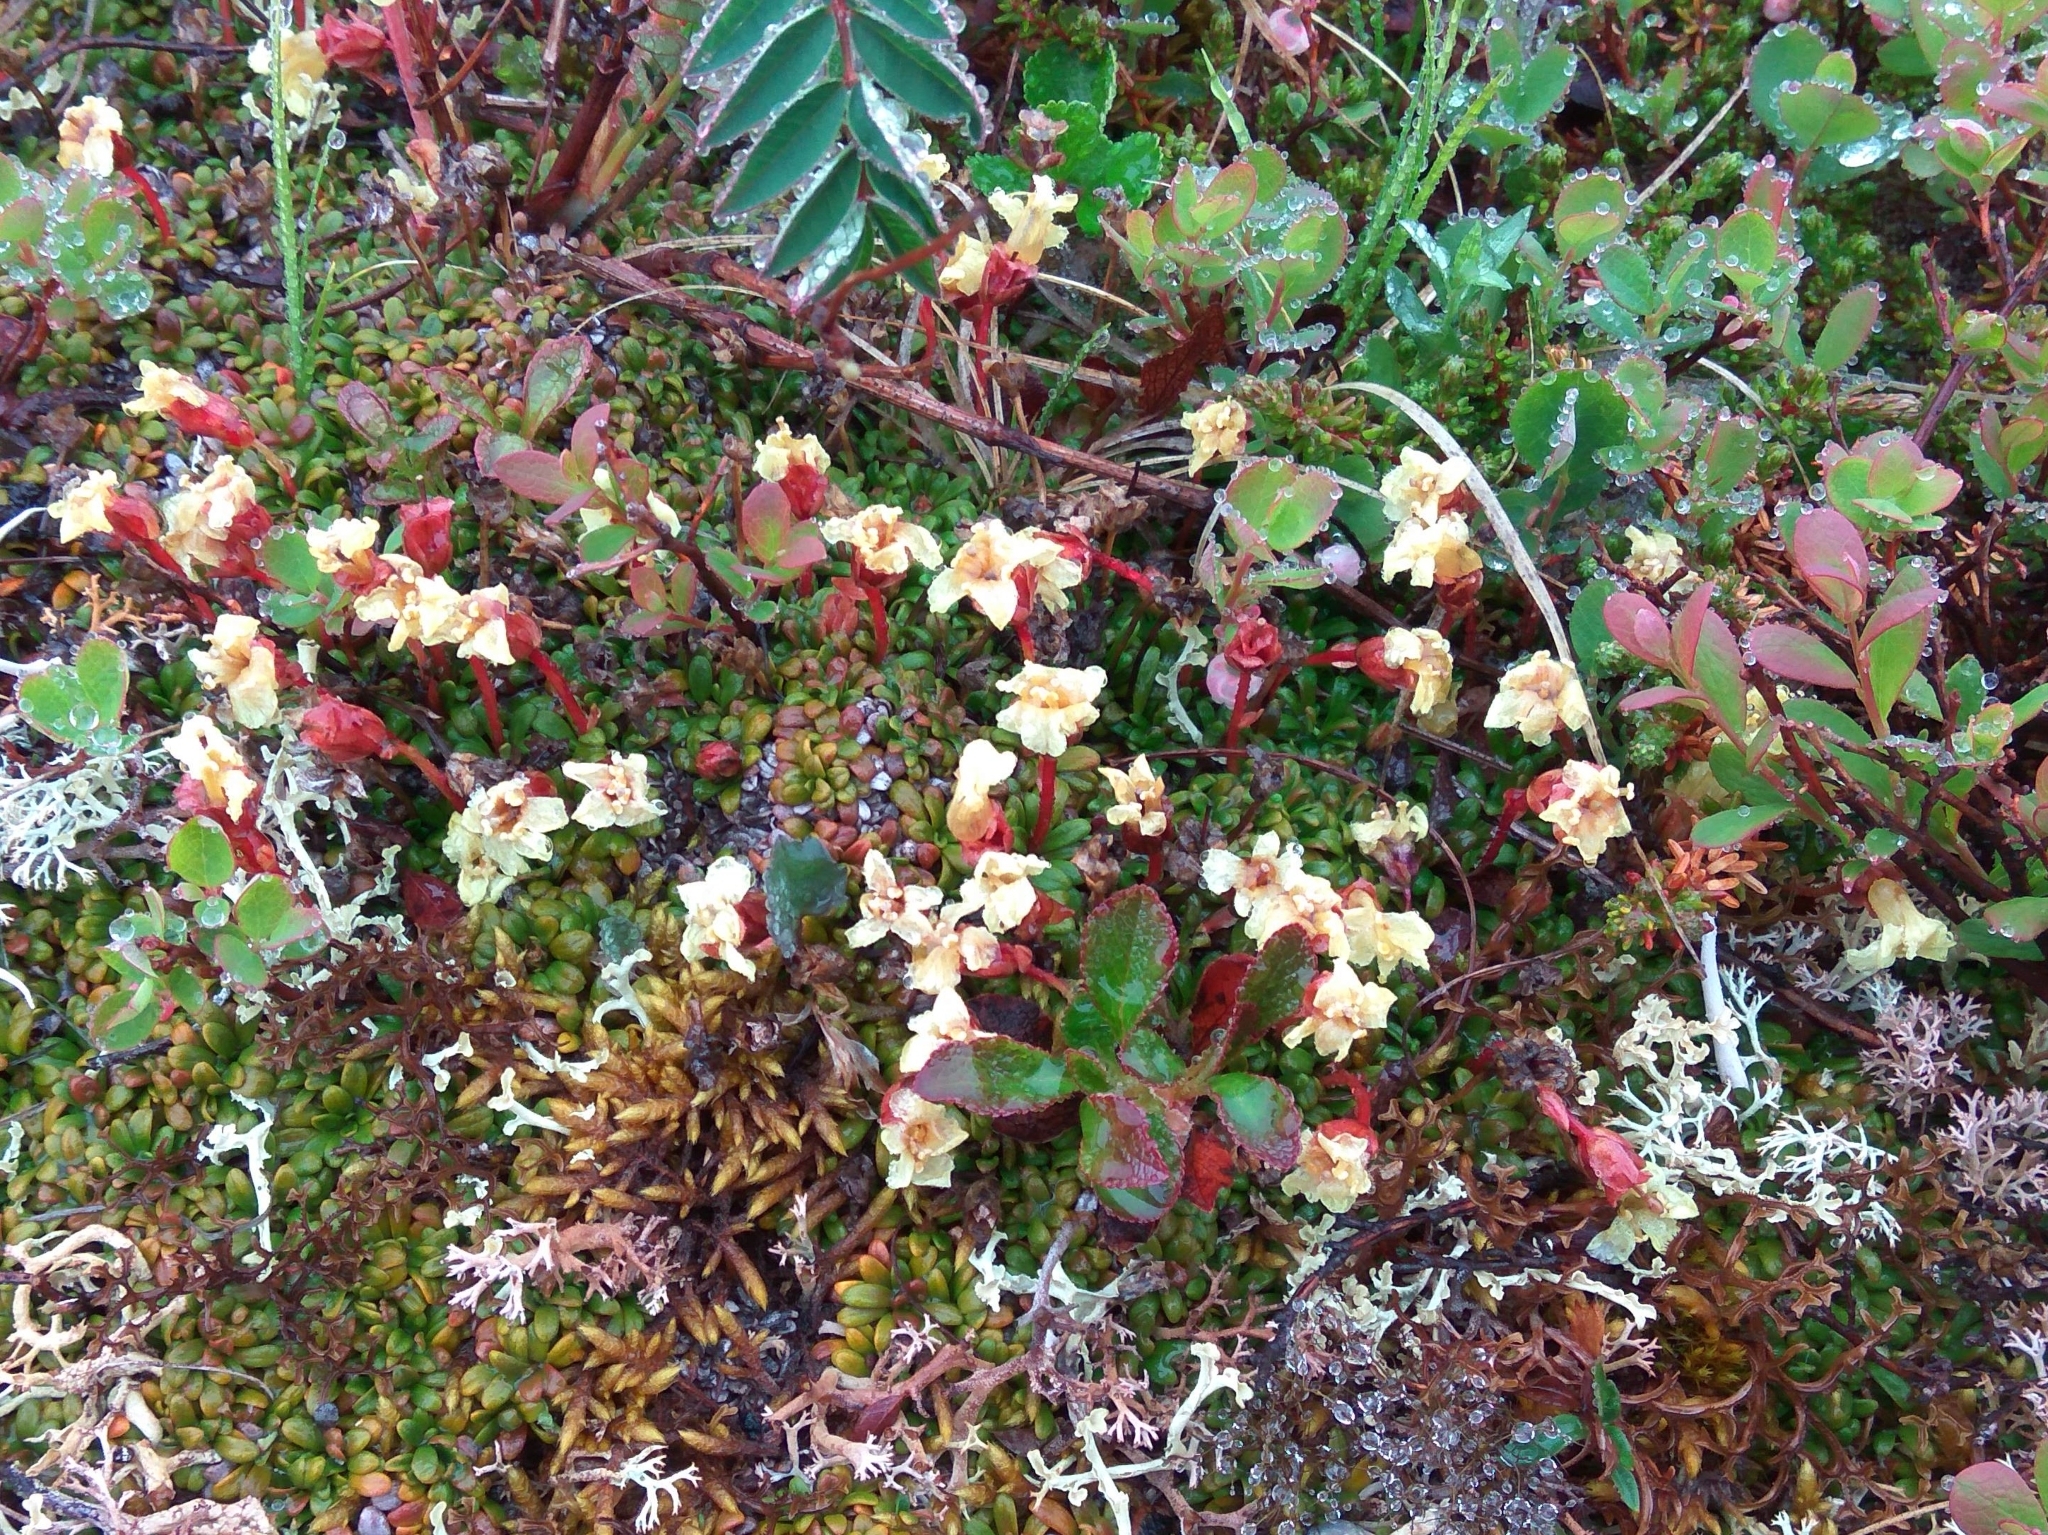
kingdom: Plantae
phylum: Tracheophyta
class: Magnoliopsida
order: Ericales
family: Diapensiaceae
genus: Diapensia
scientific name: Diapensia obovata
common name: Alaska diapensia
